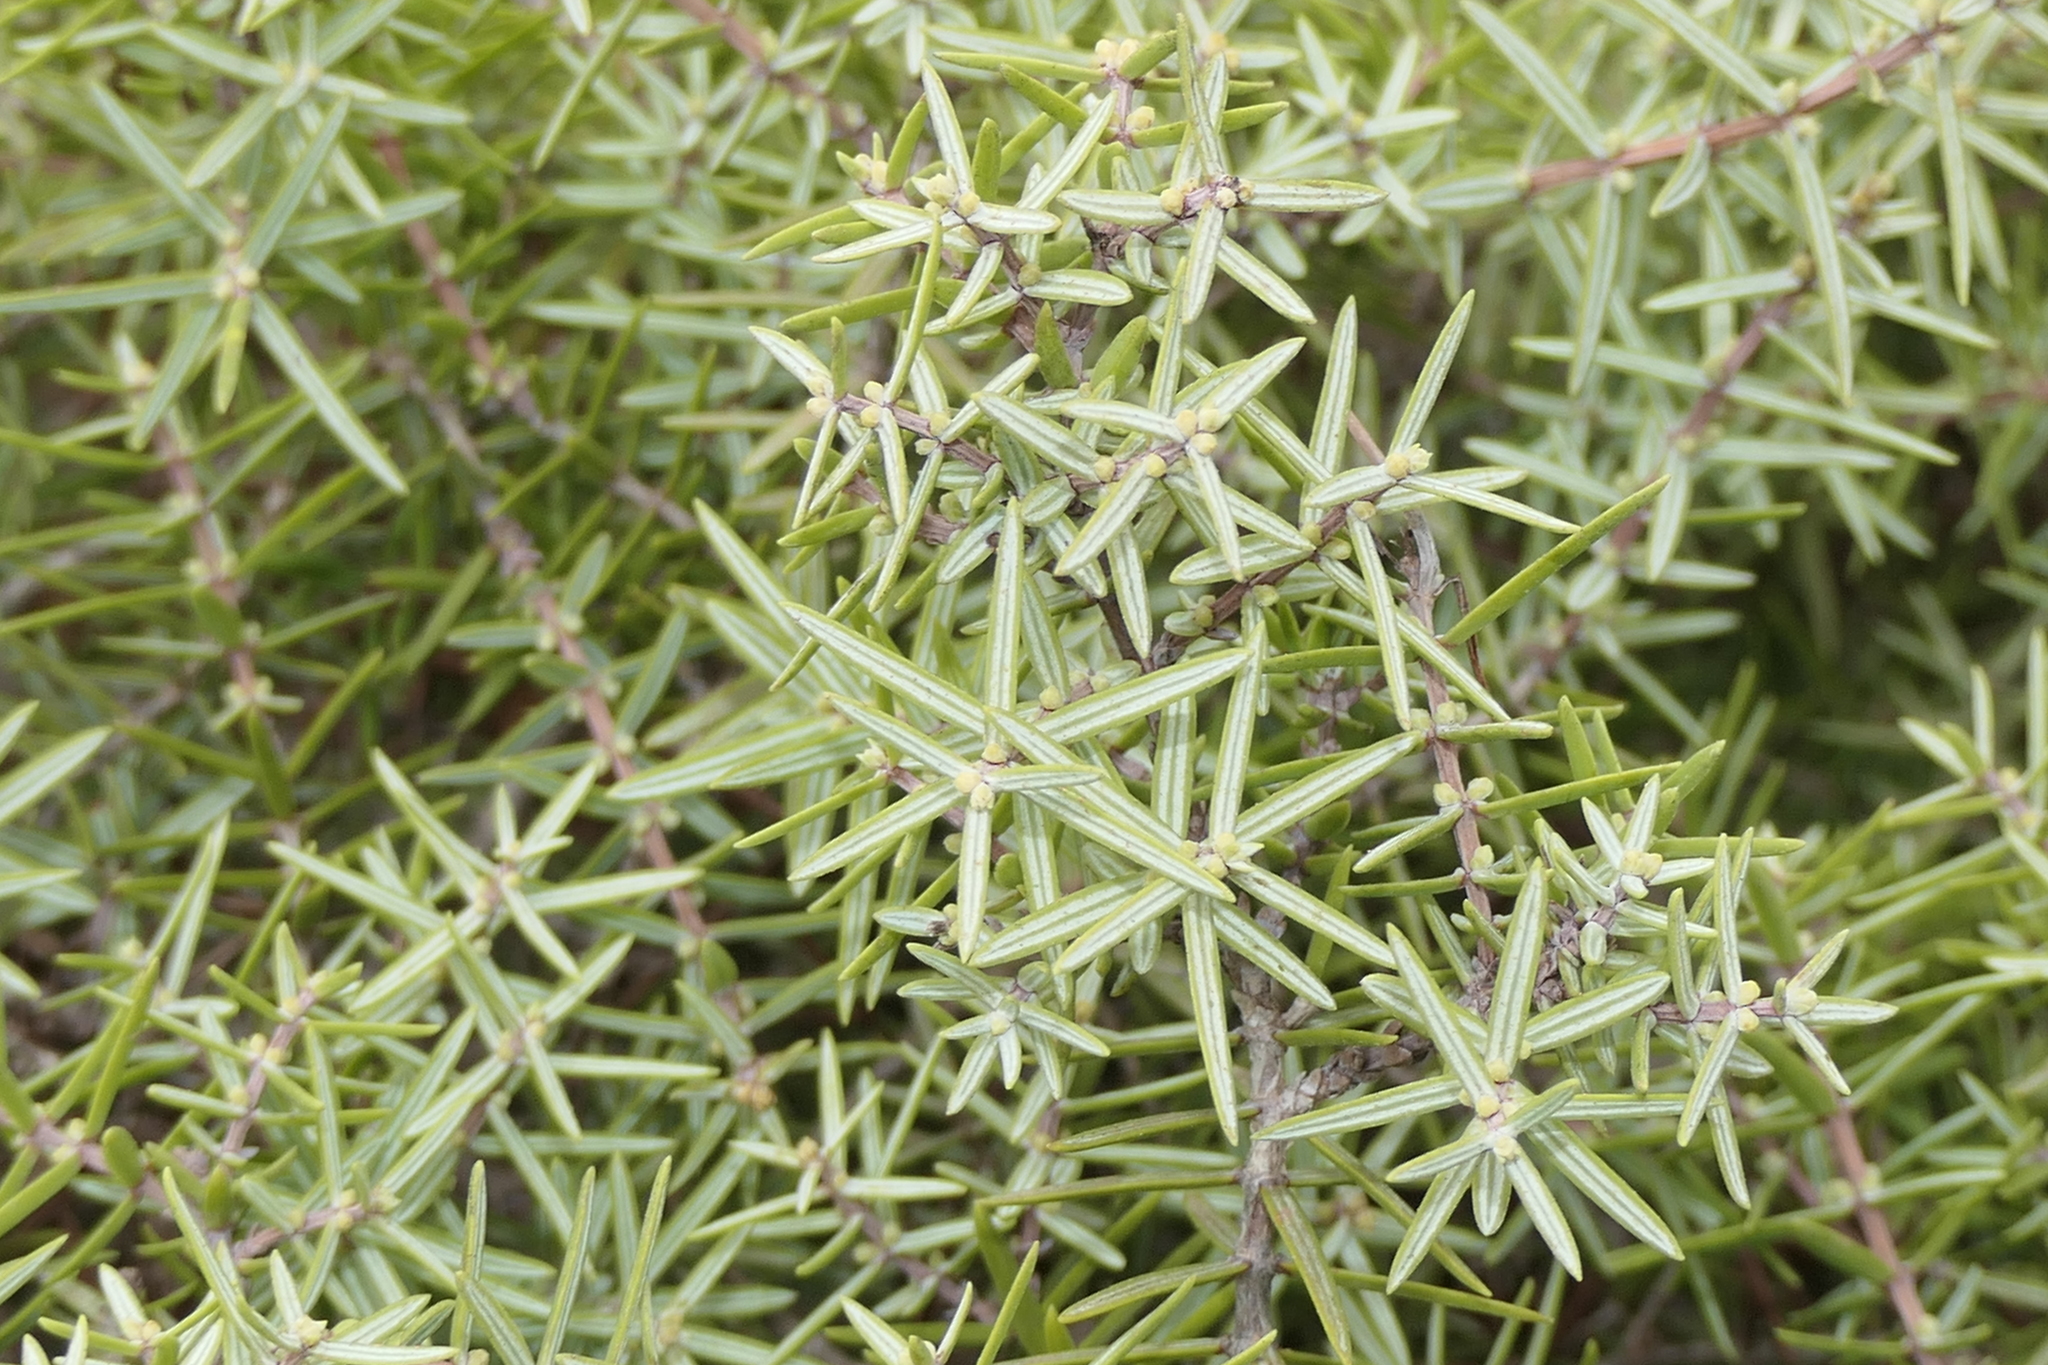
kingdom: Plantae
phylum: Tracheophyta
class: Pinopsida
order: Pinales
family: Cupressaceae
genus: Juniperus
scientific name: Juniperus oxycedrus
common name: Prickly juniper
